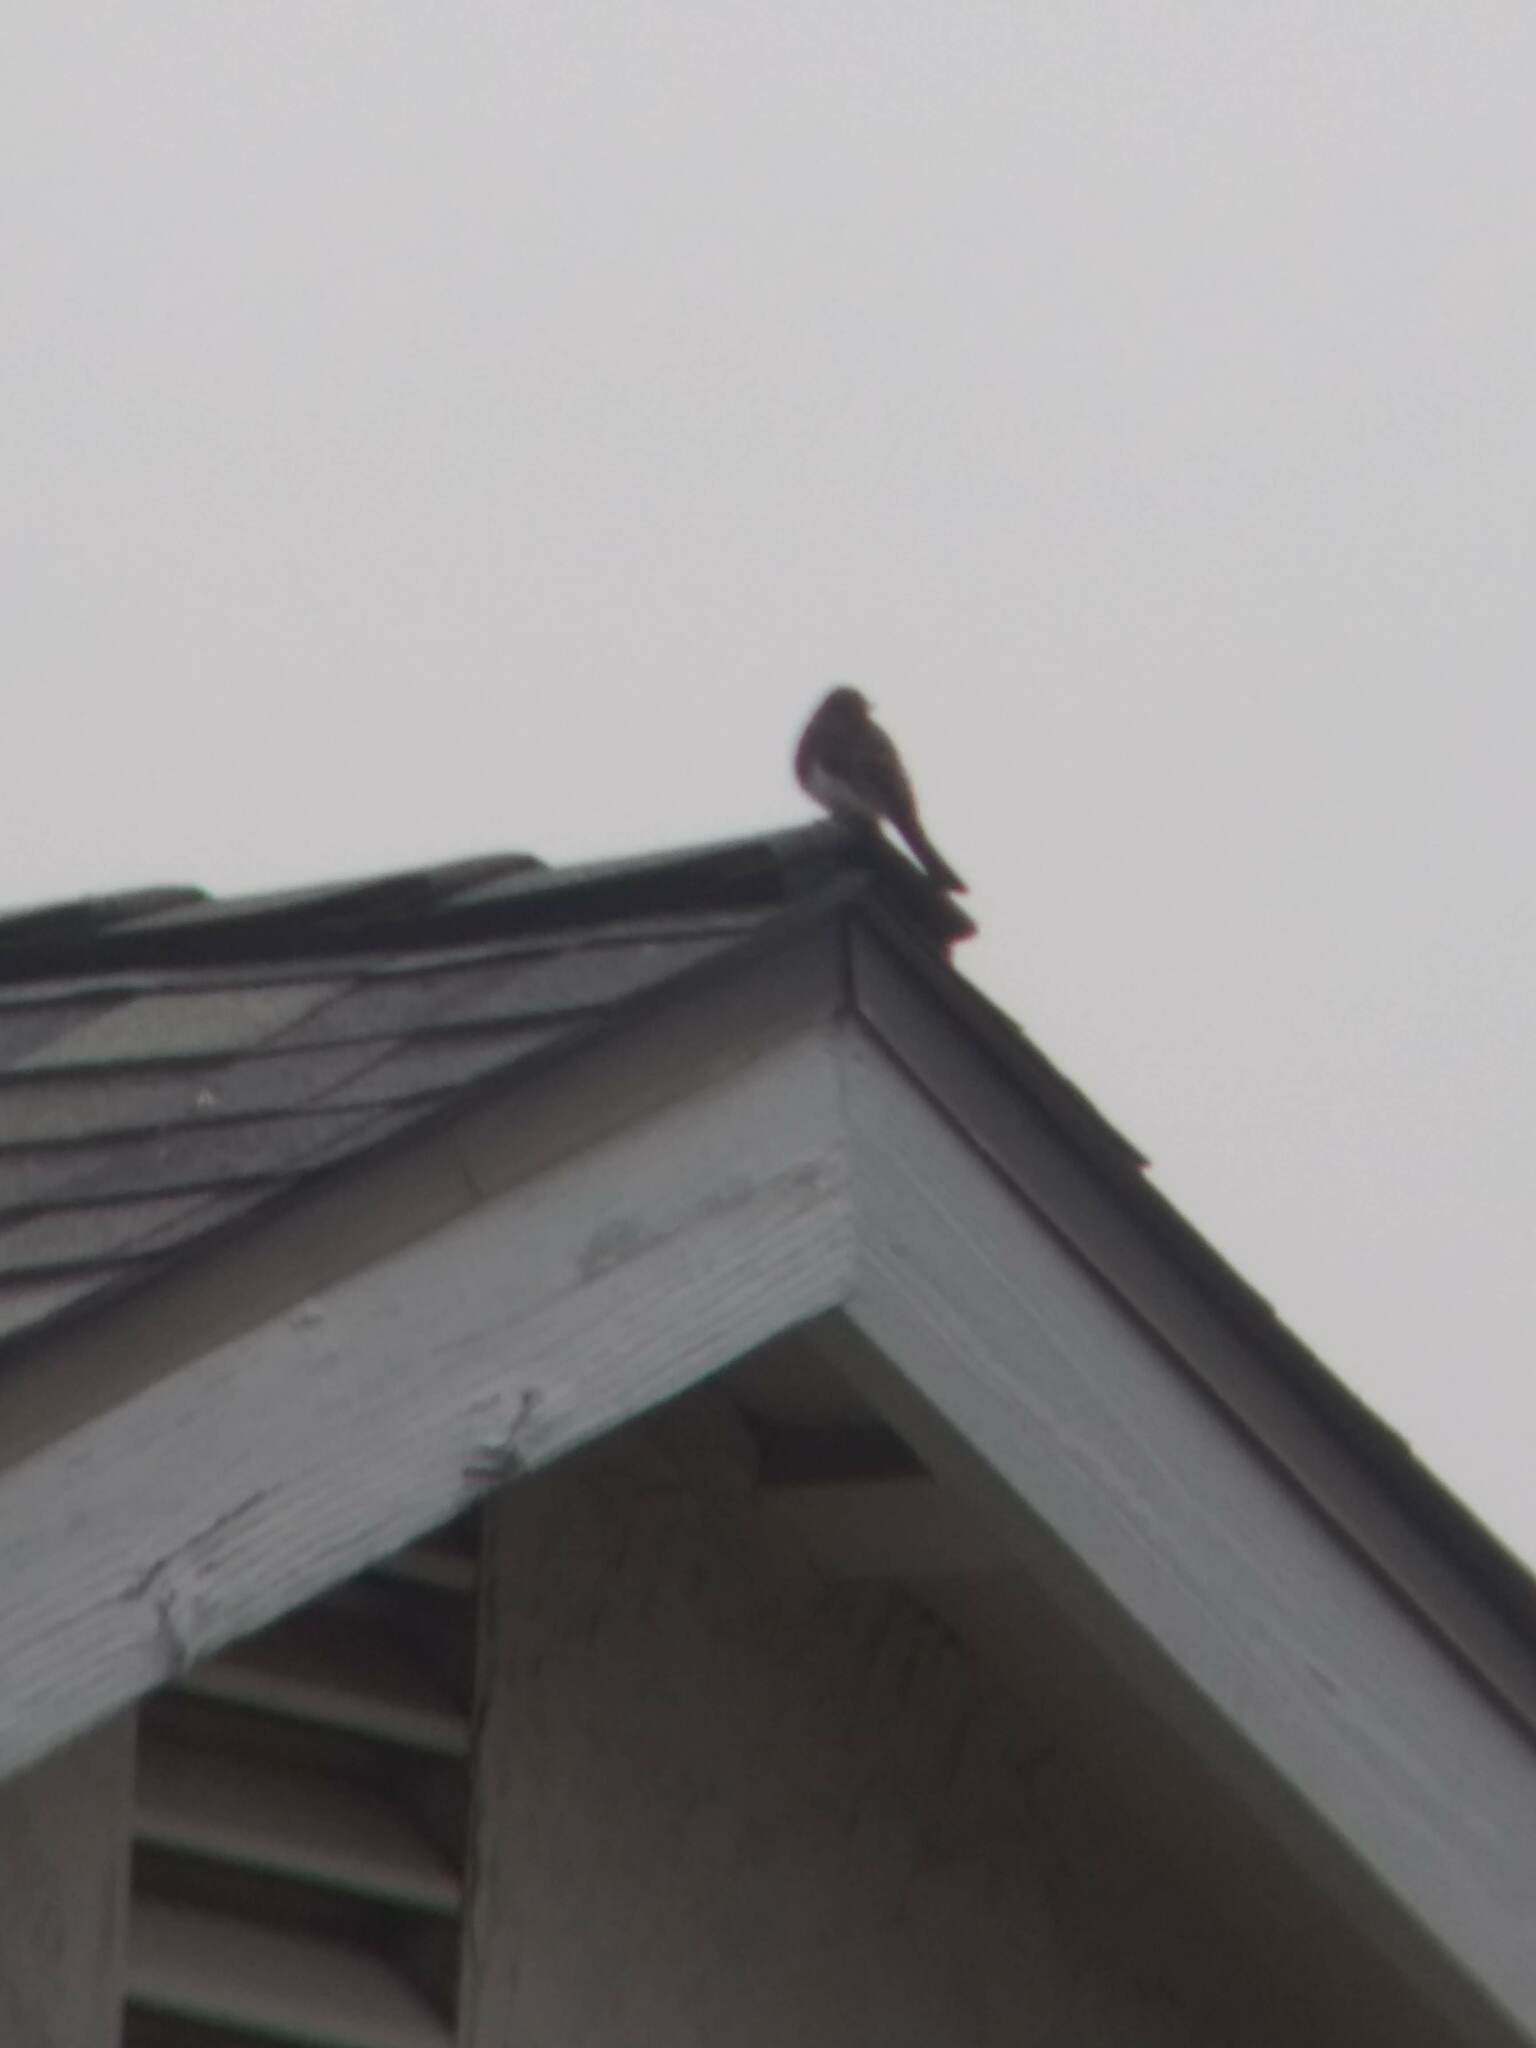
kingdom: Animalia
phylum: Chordata
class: Aves
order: Passeriformes
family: Tyrannidae
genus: Sayornis
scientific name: Sayornis nigricans
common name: Black phoebe
